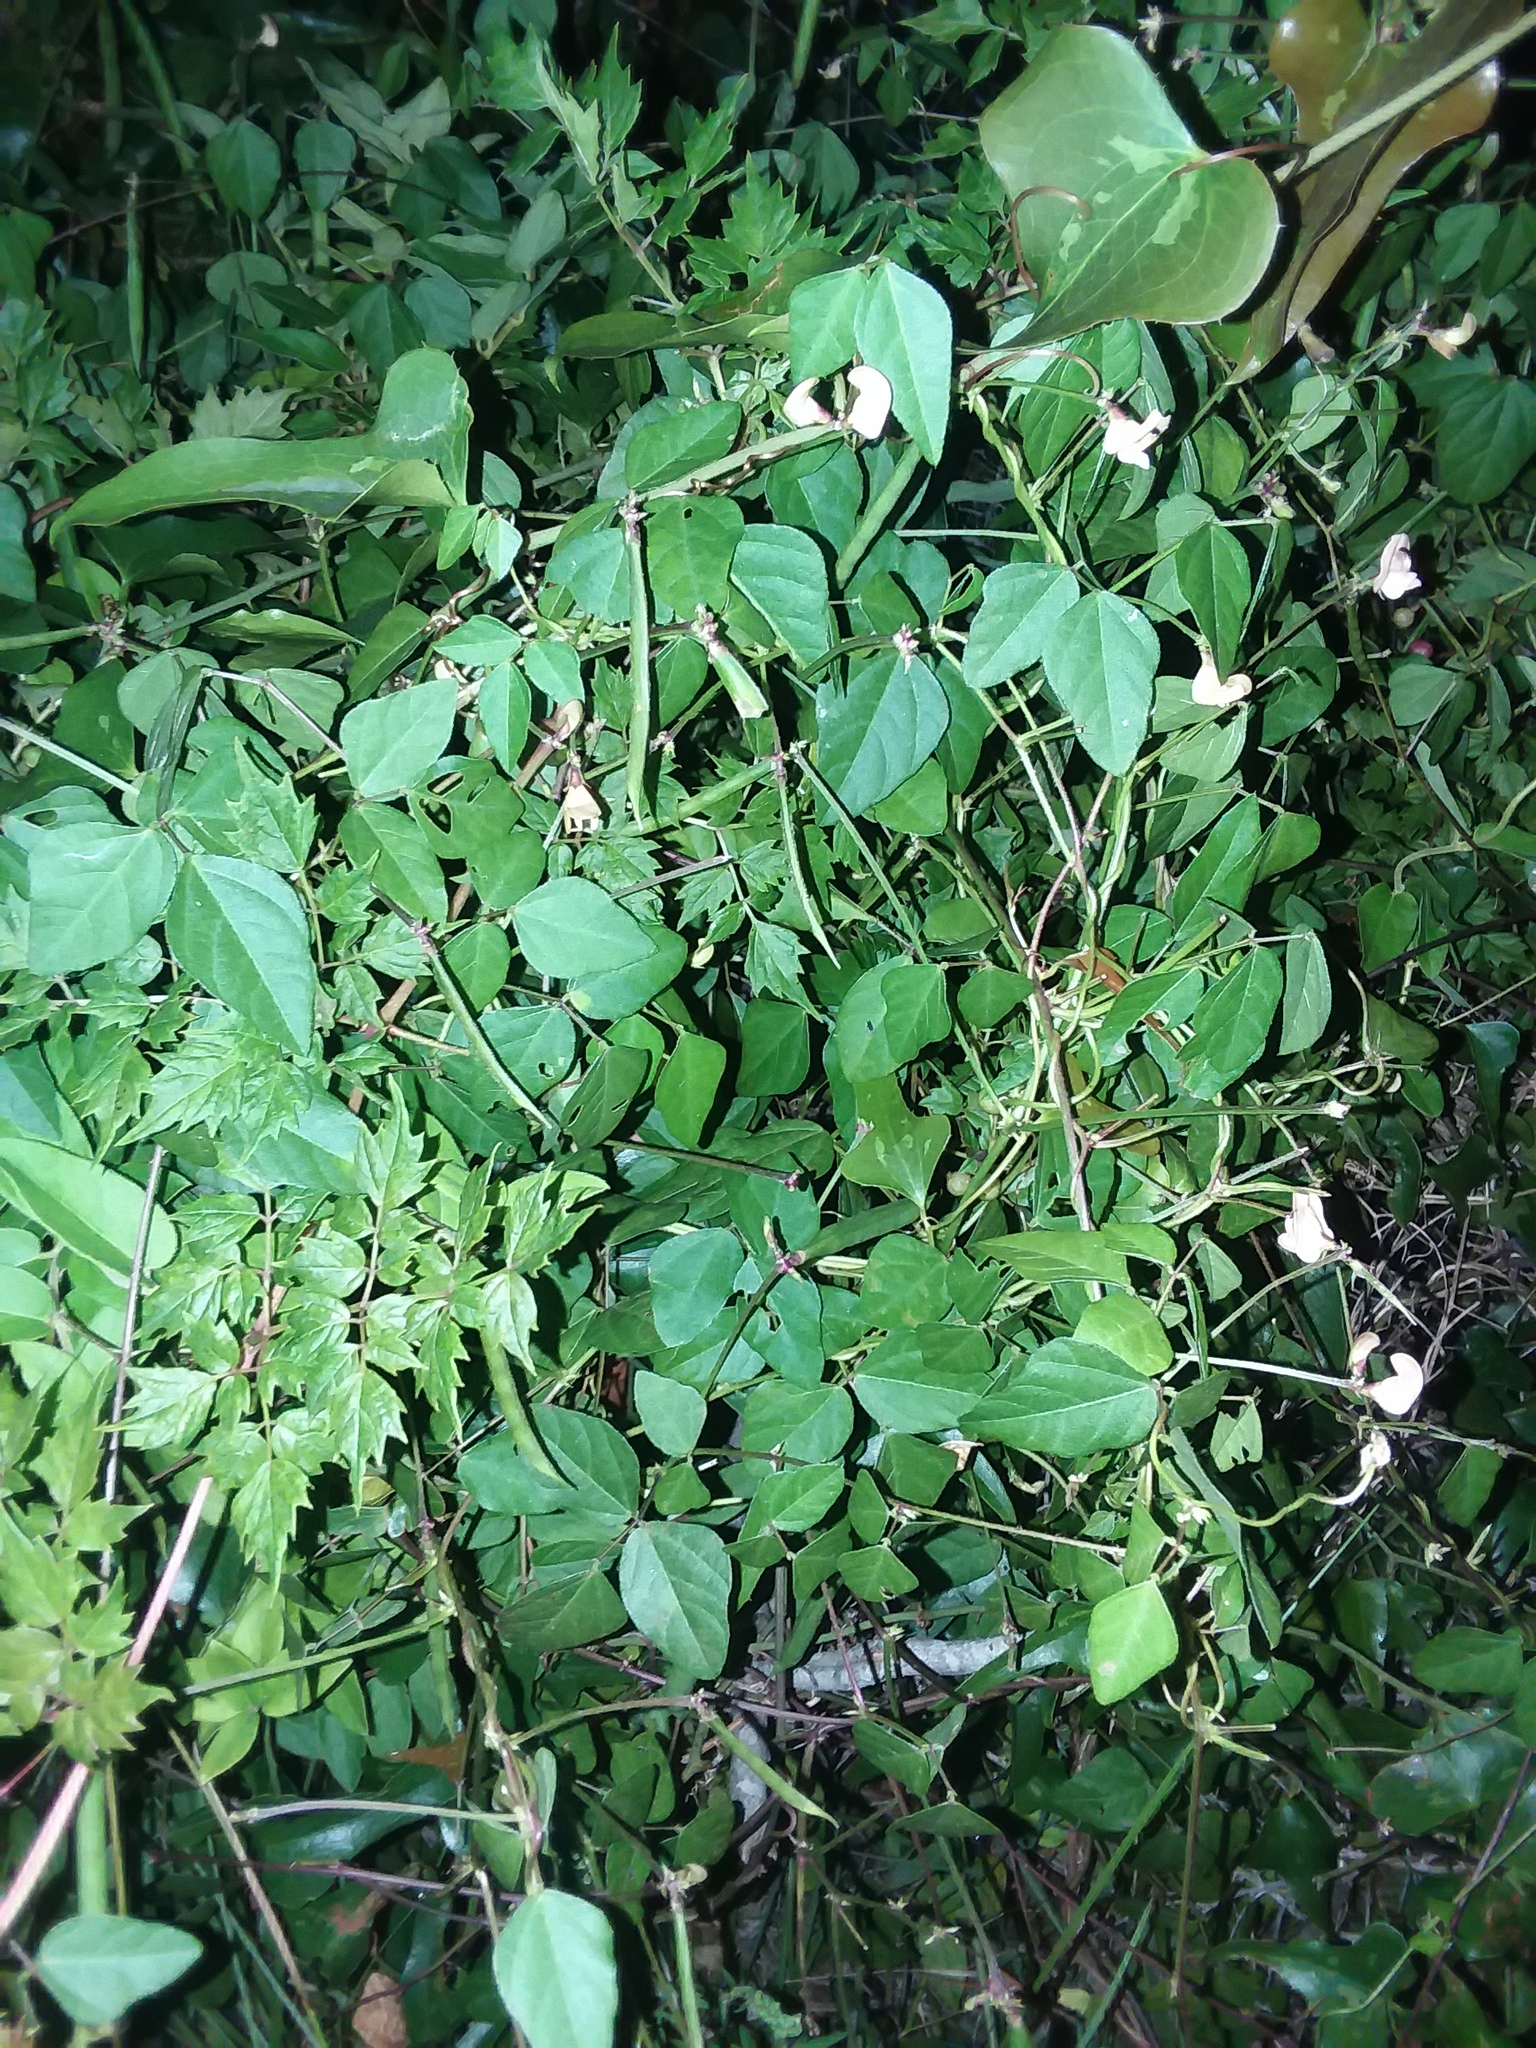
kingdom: Plantae
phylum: Tracheophyta
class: Magnoliopsida
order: Fabales
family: Fabaceae
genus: Strophostyles
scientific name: Strophostyles helvola
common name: Trailing wild bean
